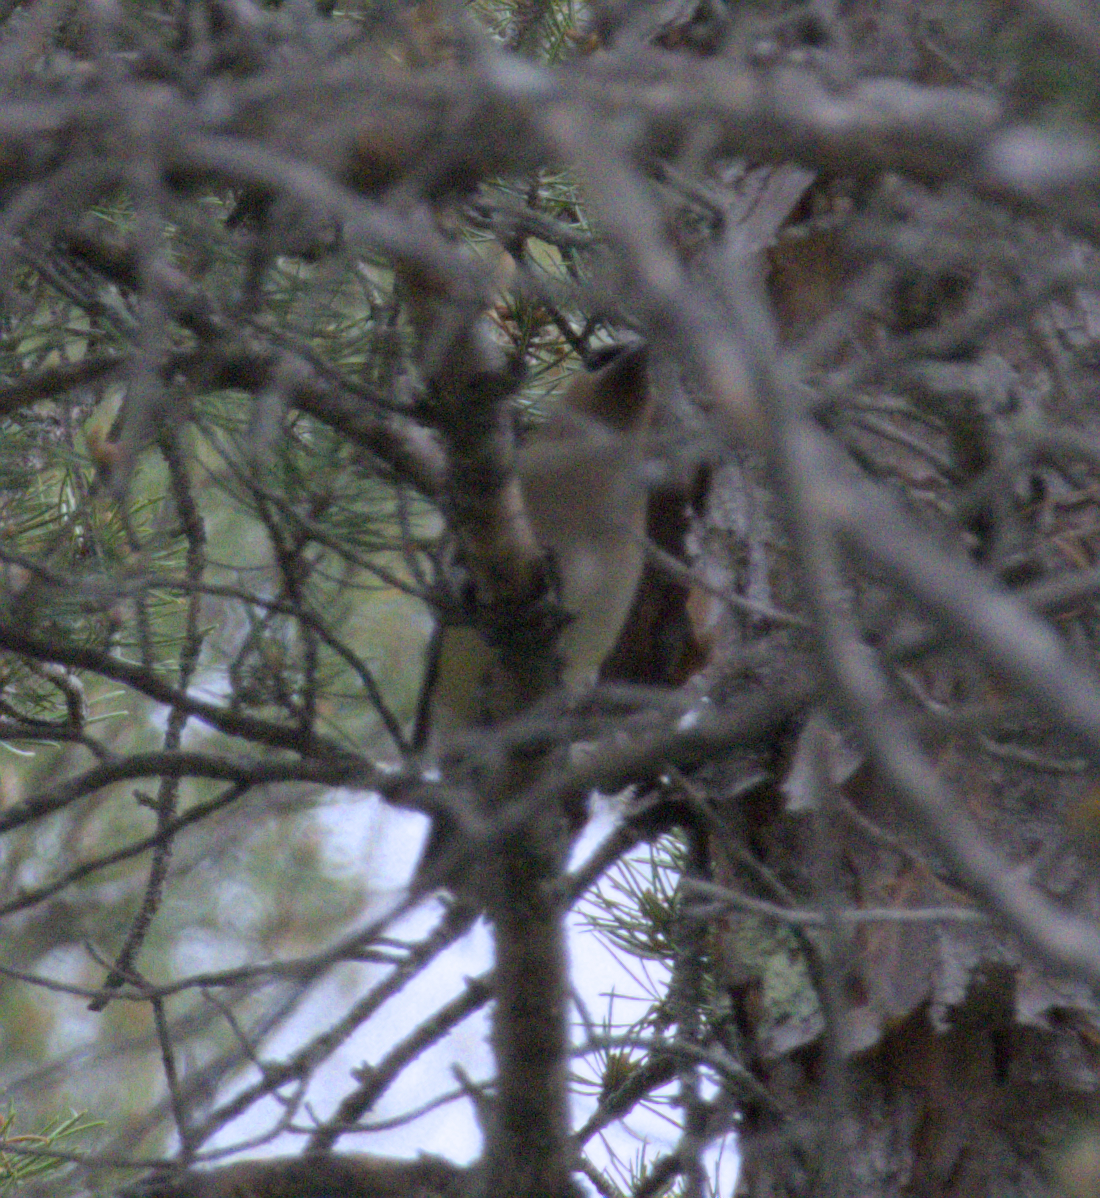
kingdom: Animalia
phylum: Chordata
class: Aves
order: Passeriformes
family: Bombycillidae
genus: Bombycilla
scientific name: Bombycilla cedrorum
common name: Cedar waxwing
